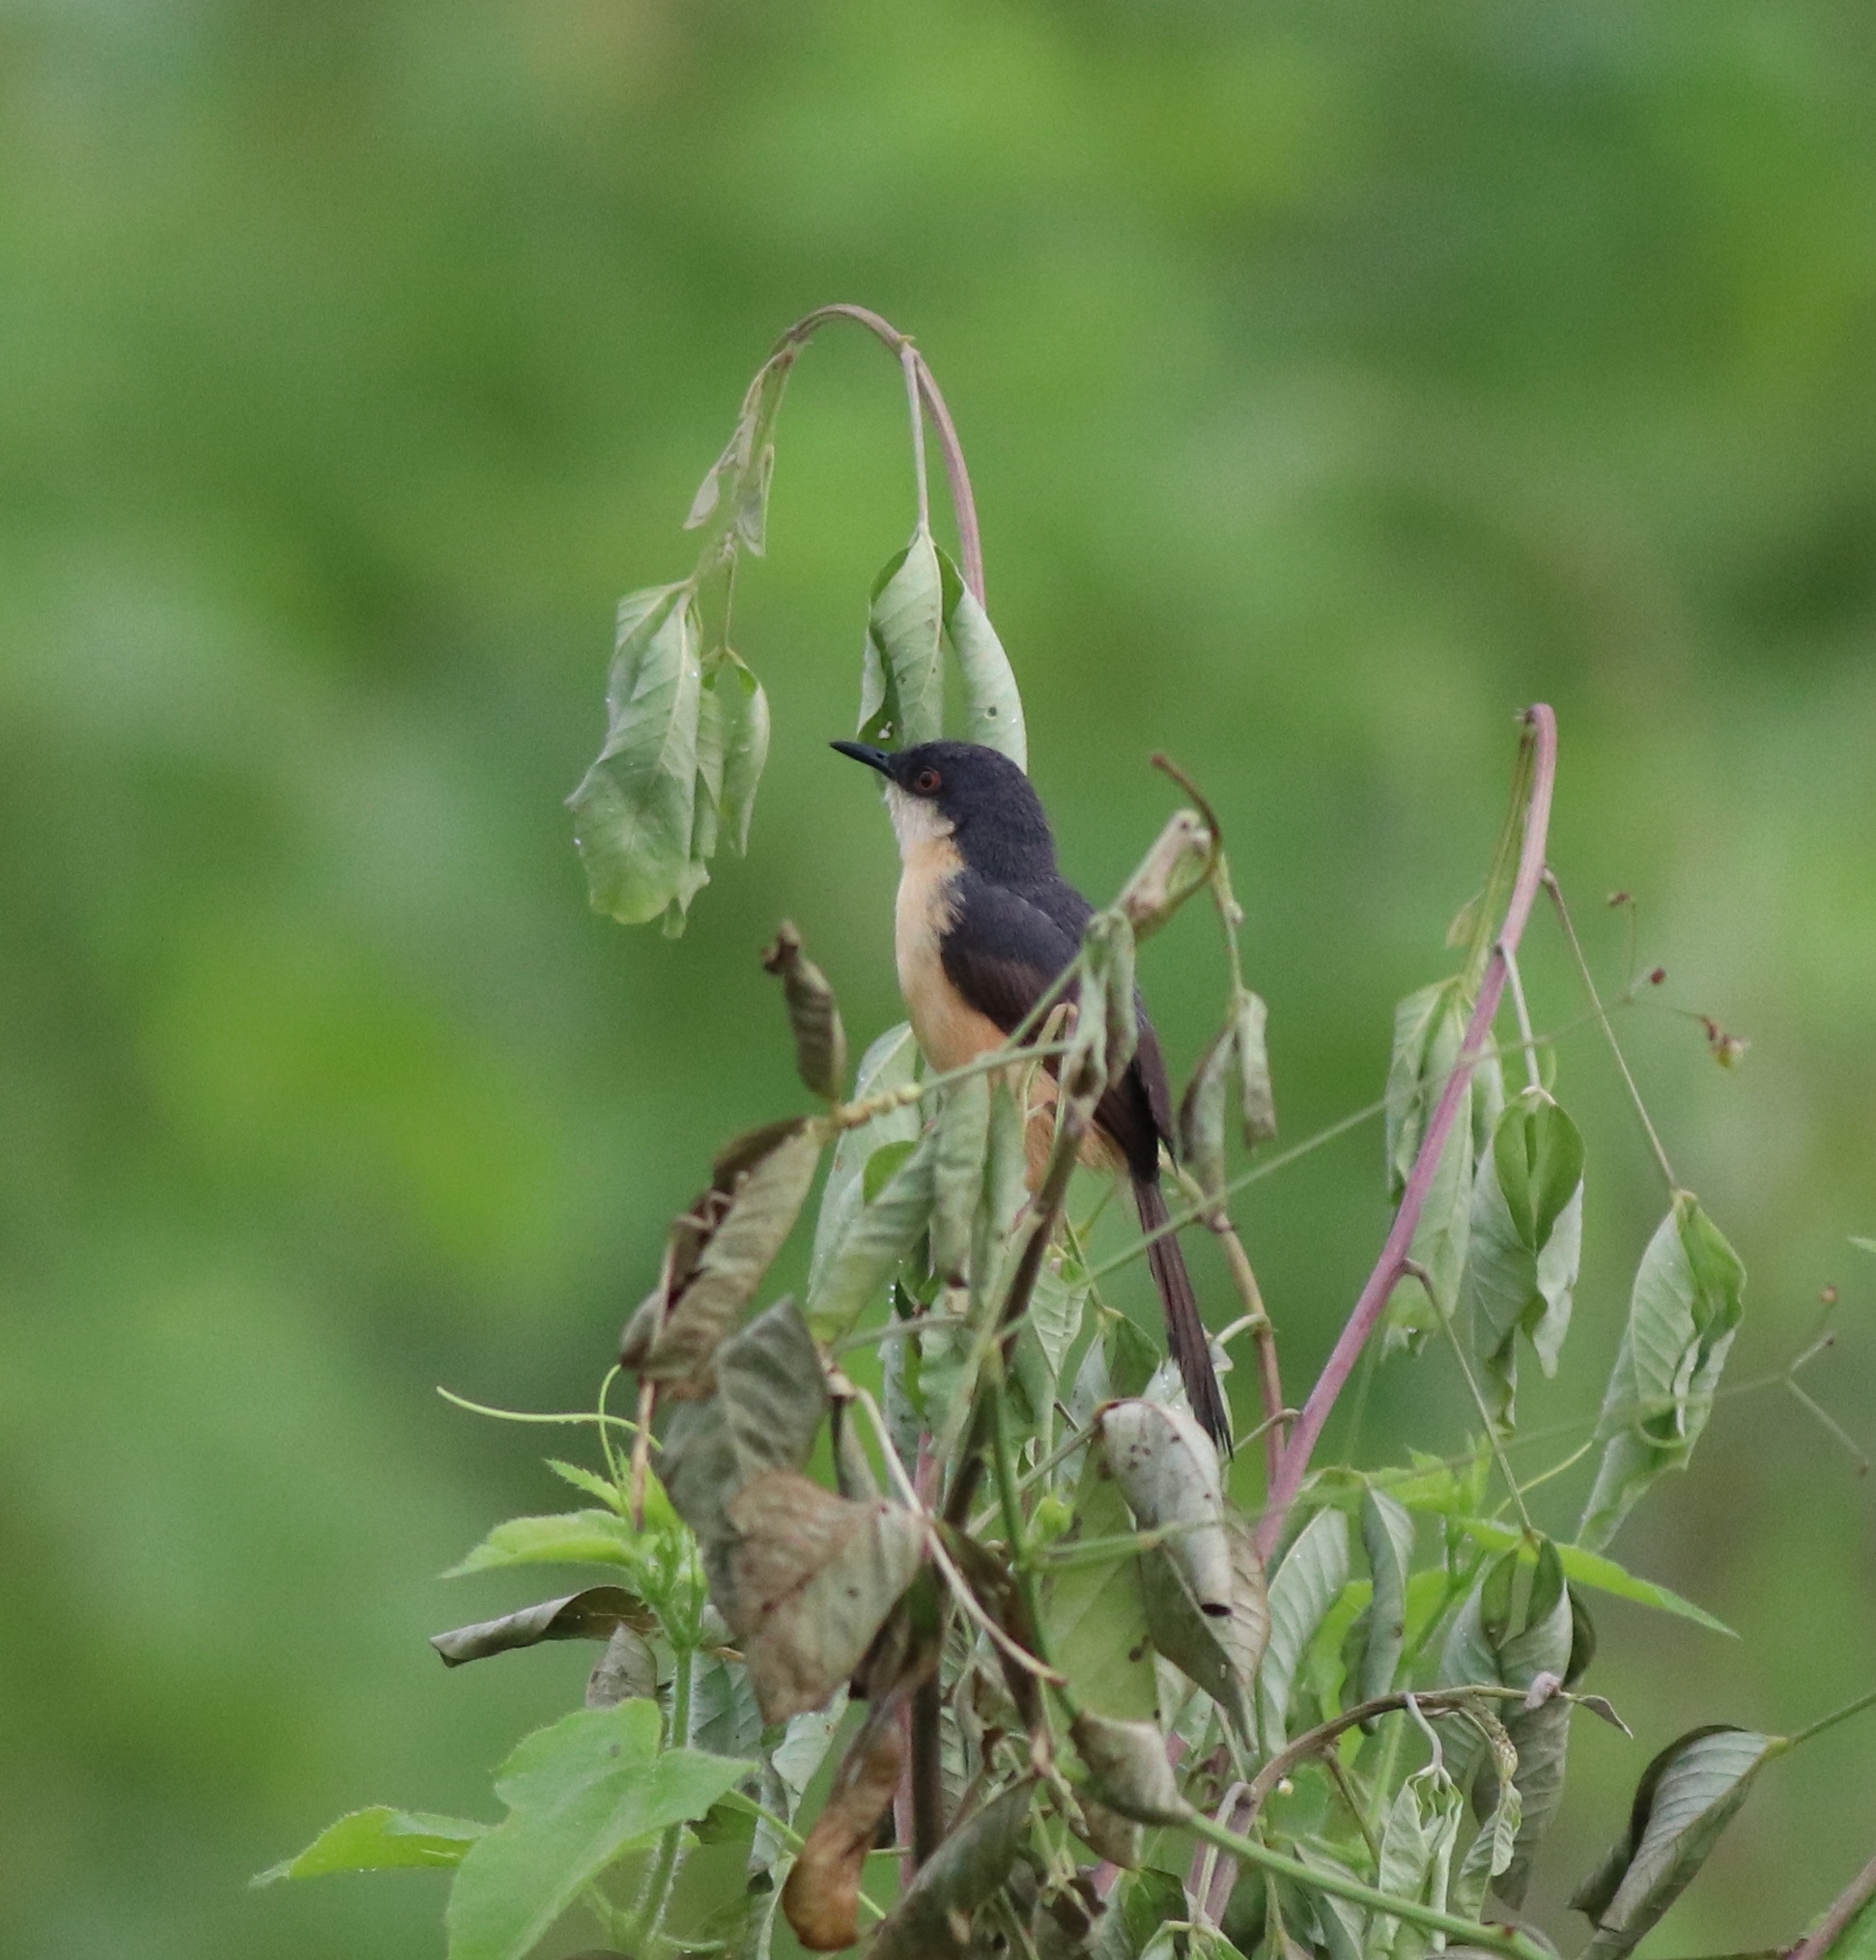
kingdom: Animalia
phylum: Chordata
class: Aves
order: Passeriformes
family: Cisticolidae
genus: Prinia
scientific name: Prinia socialis
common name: Ashy prinia
